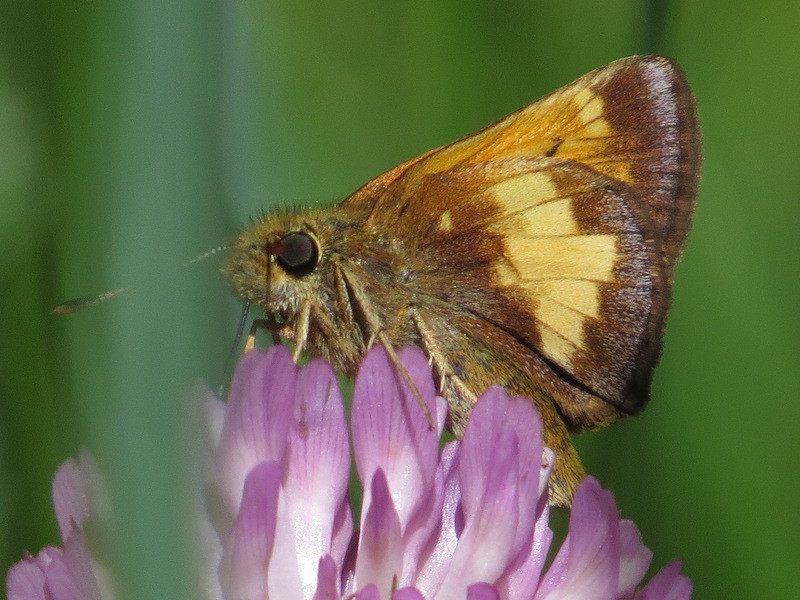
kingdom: Animalia
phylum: Arthropoda
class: Insecta
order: Lepidoptera
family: Hesperiidae
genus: Lon
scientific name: Lon hobomok
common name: Hobomok skipper
